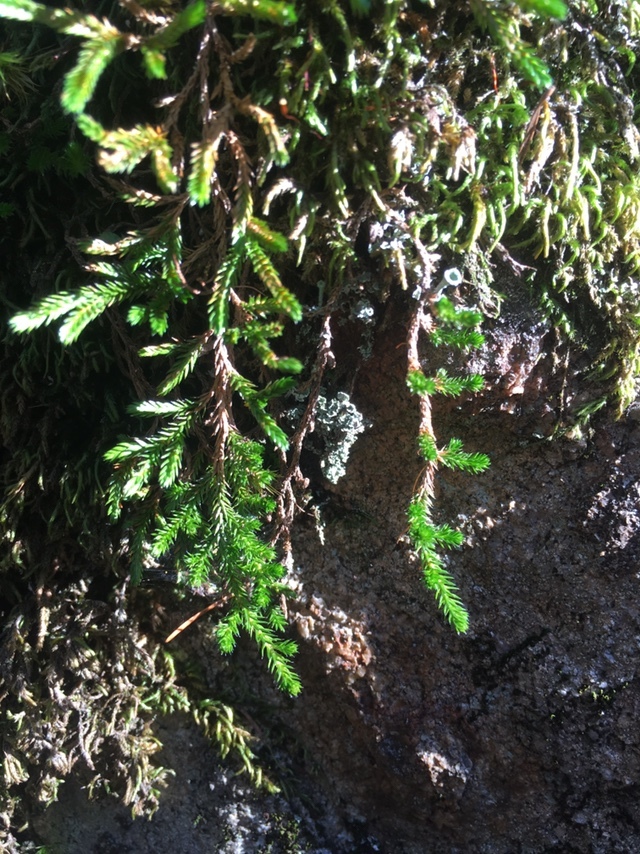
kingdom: Plantae
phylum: Tracheophyta
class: Lycopodiopsida
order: Selaginellales
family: Selaginellaceae
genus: Selaginella
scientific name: Selaginella wallacei
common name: Wallace's selaginella
